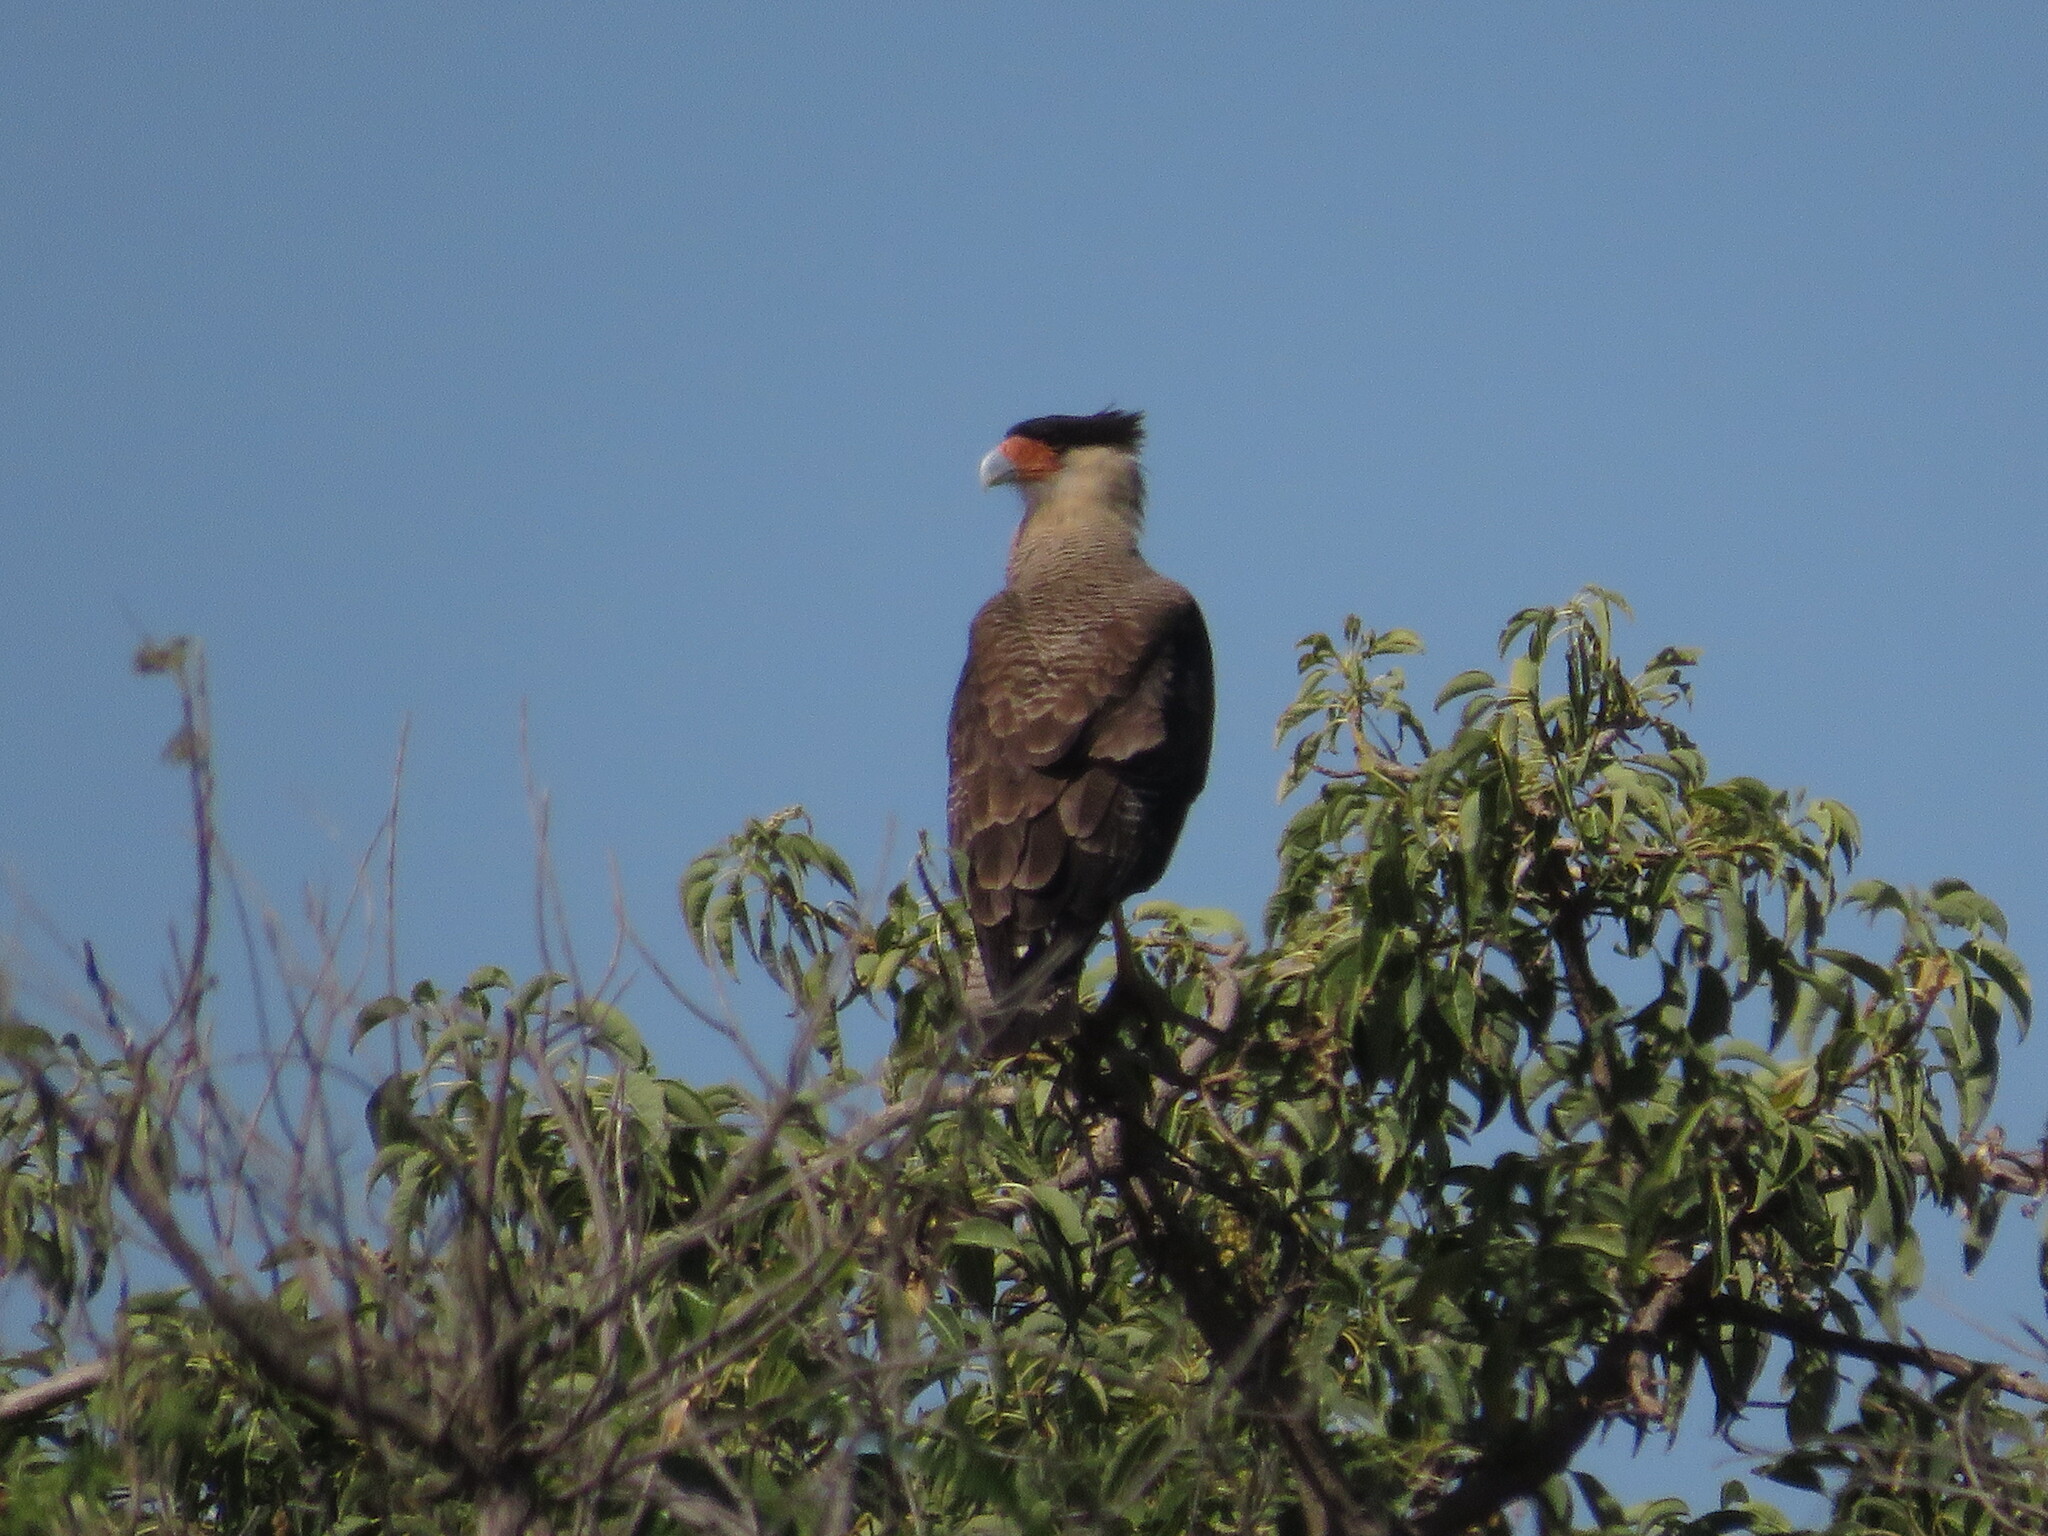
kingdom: Animalia
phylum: Chordata
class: Aves
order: Falconiformes
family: Falconidae
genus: Caracara
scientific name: Caracara plancus
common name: Southern caracara
